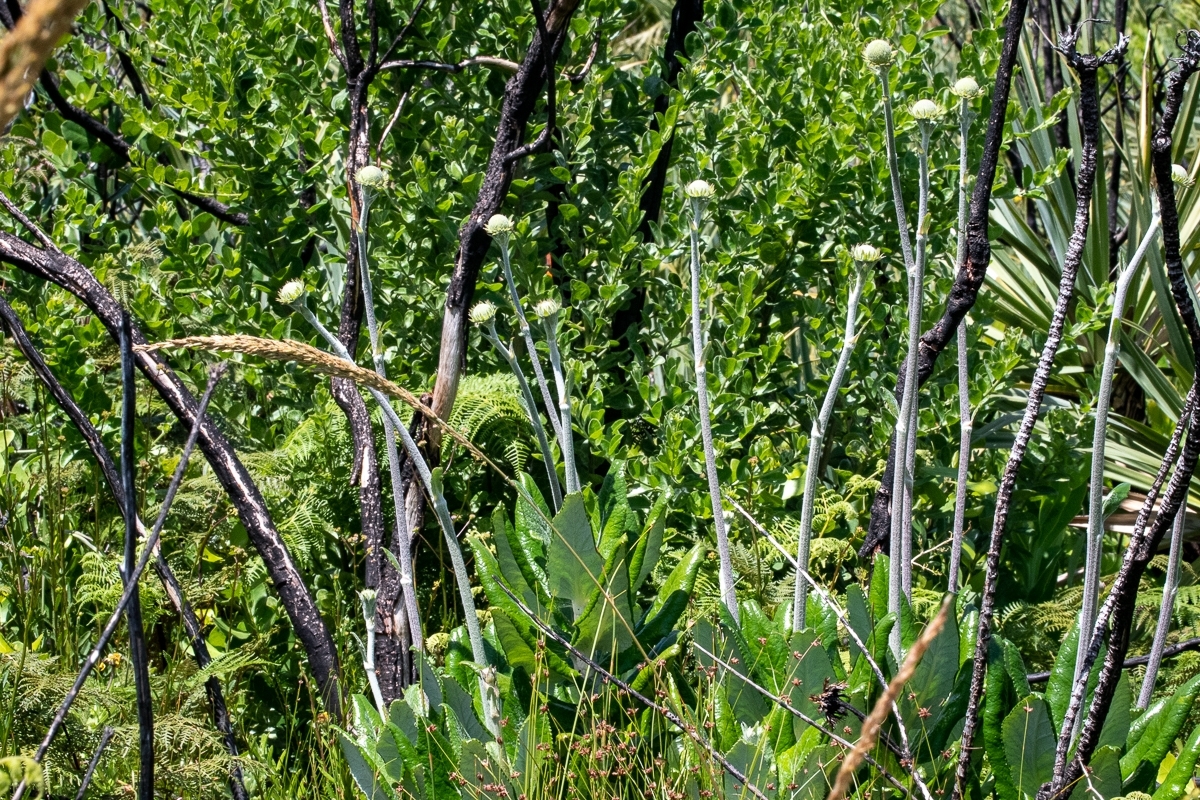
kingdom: Plantae
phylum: Tracheophyta
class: Magnoliopsida
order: Apiales
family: Apiaceae
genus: Hermas
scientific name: Hermas villosa
